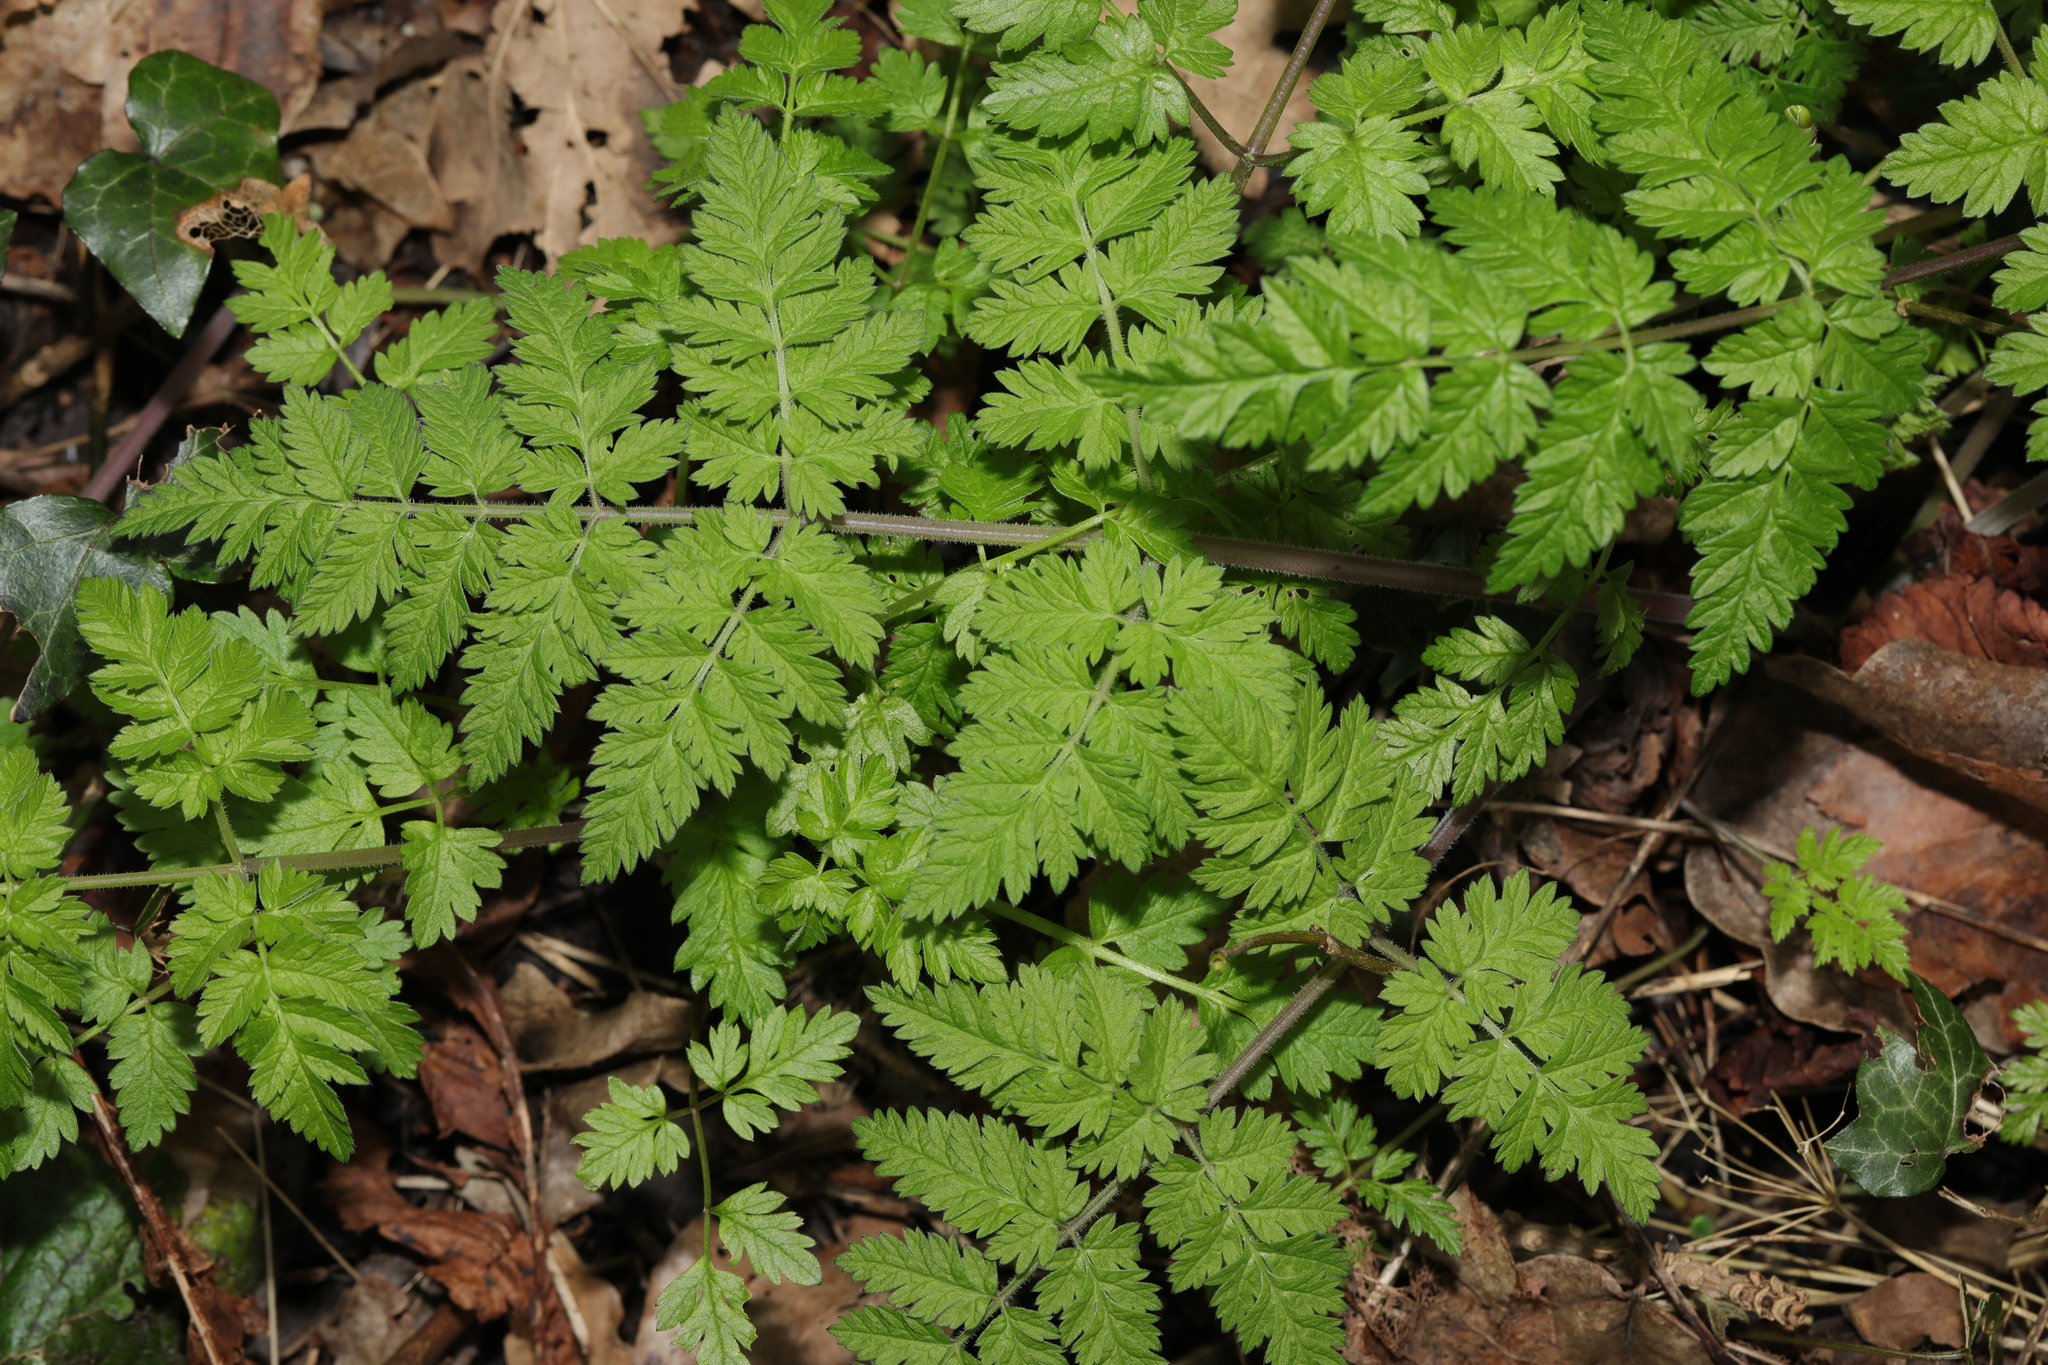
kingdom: Plantae
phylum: Tracheophyta
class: Magnoliopsida
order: Apiales
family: Apiaceae
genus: Anthriscus
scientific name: Anthriscus sylvestris
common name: Cow parsley
